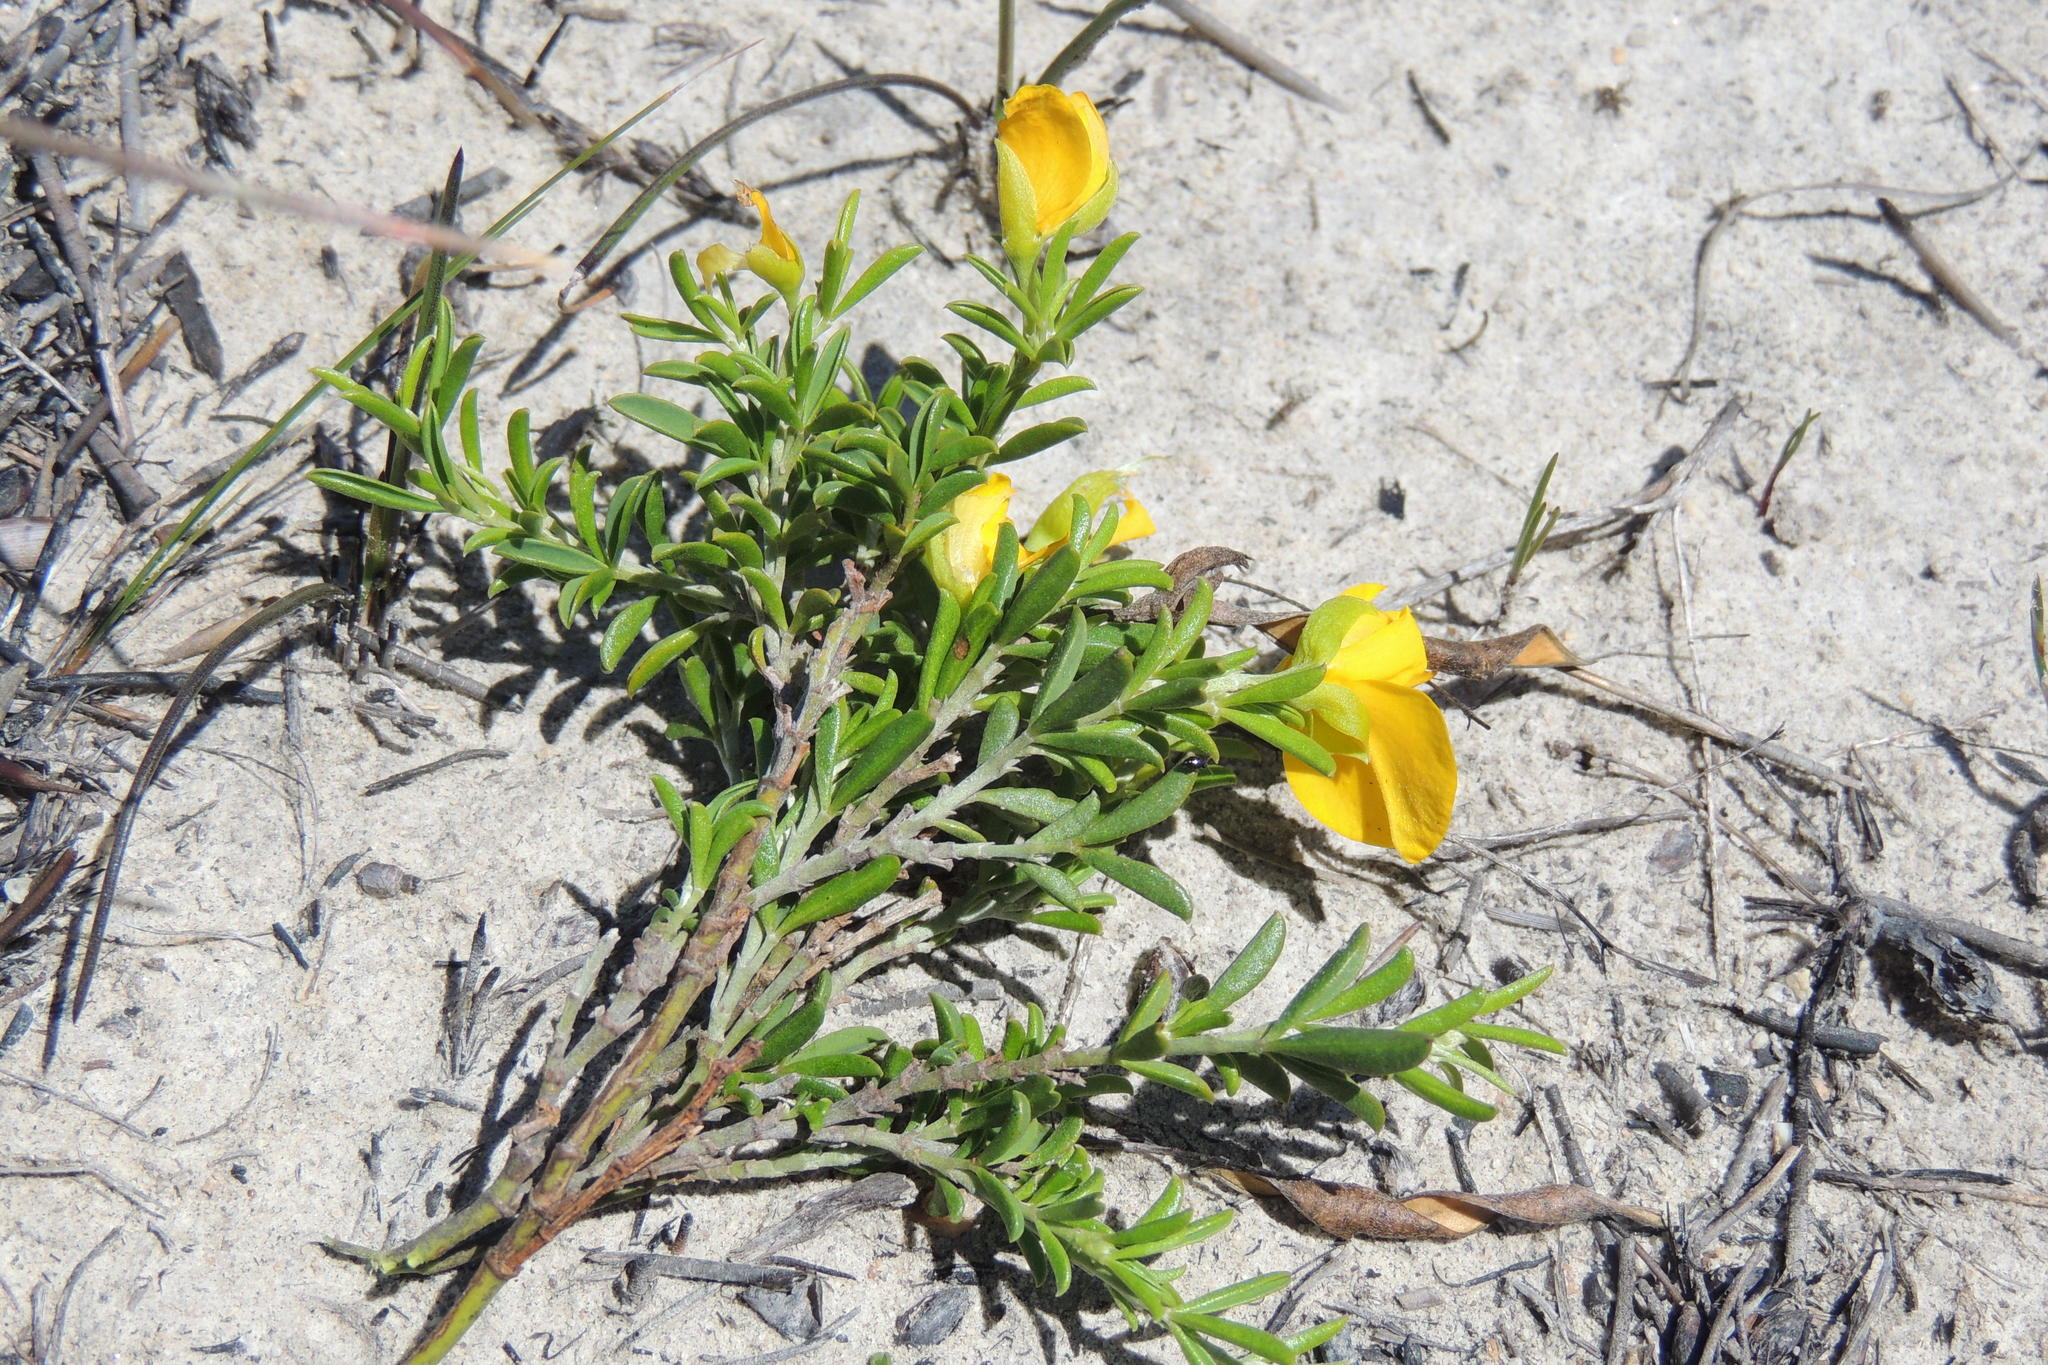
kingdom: Plantae
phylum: Tracheophyta
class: Magnoliopsida
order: Fabales
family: Fabaceae
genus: Argyrolobium
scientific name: Argyrolobium pachyphyllum
